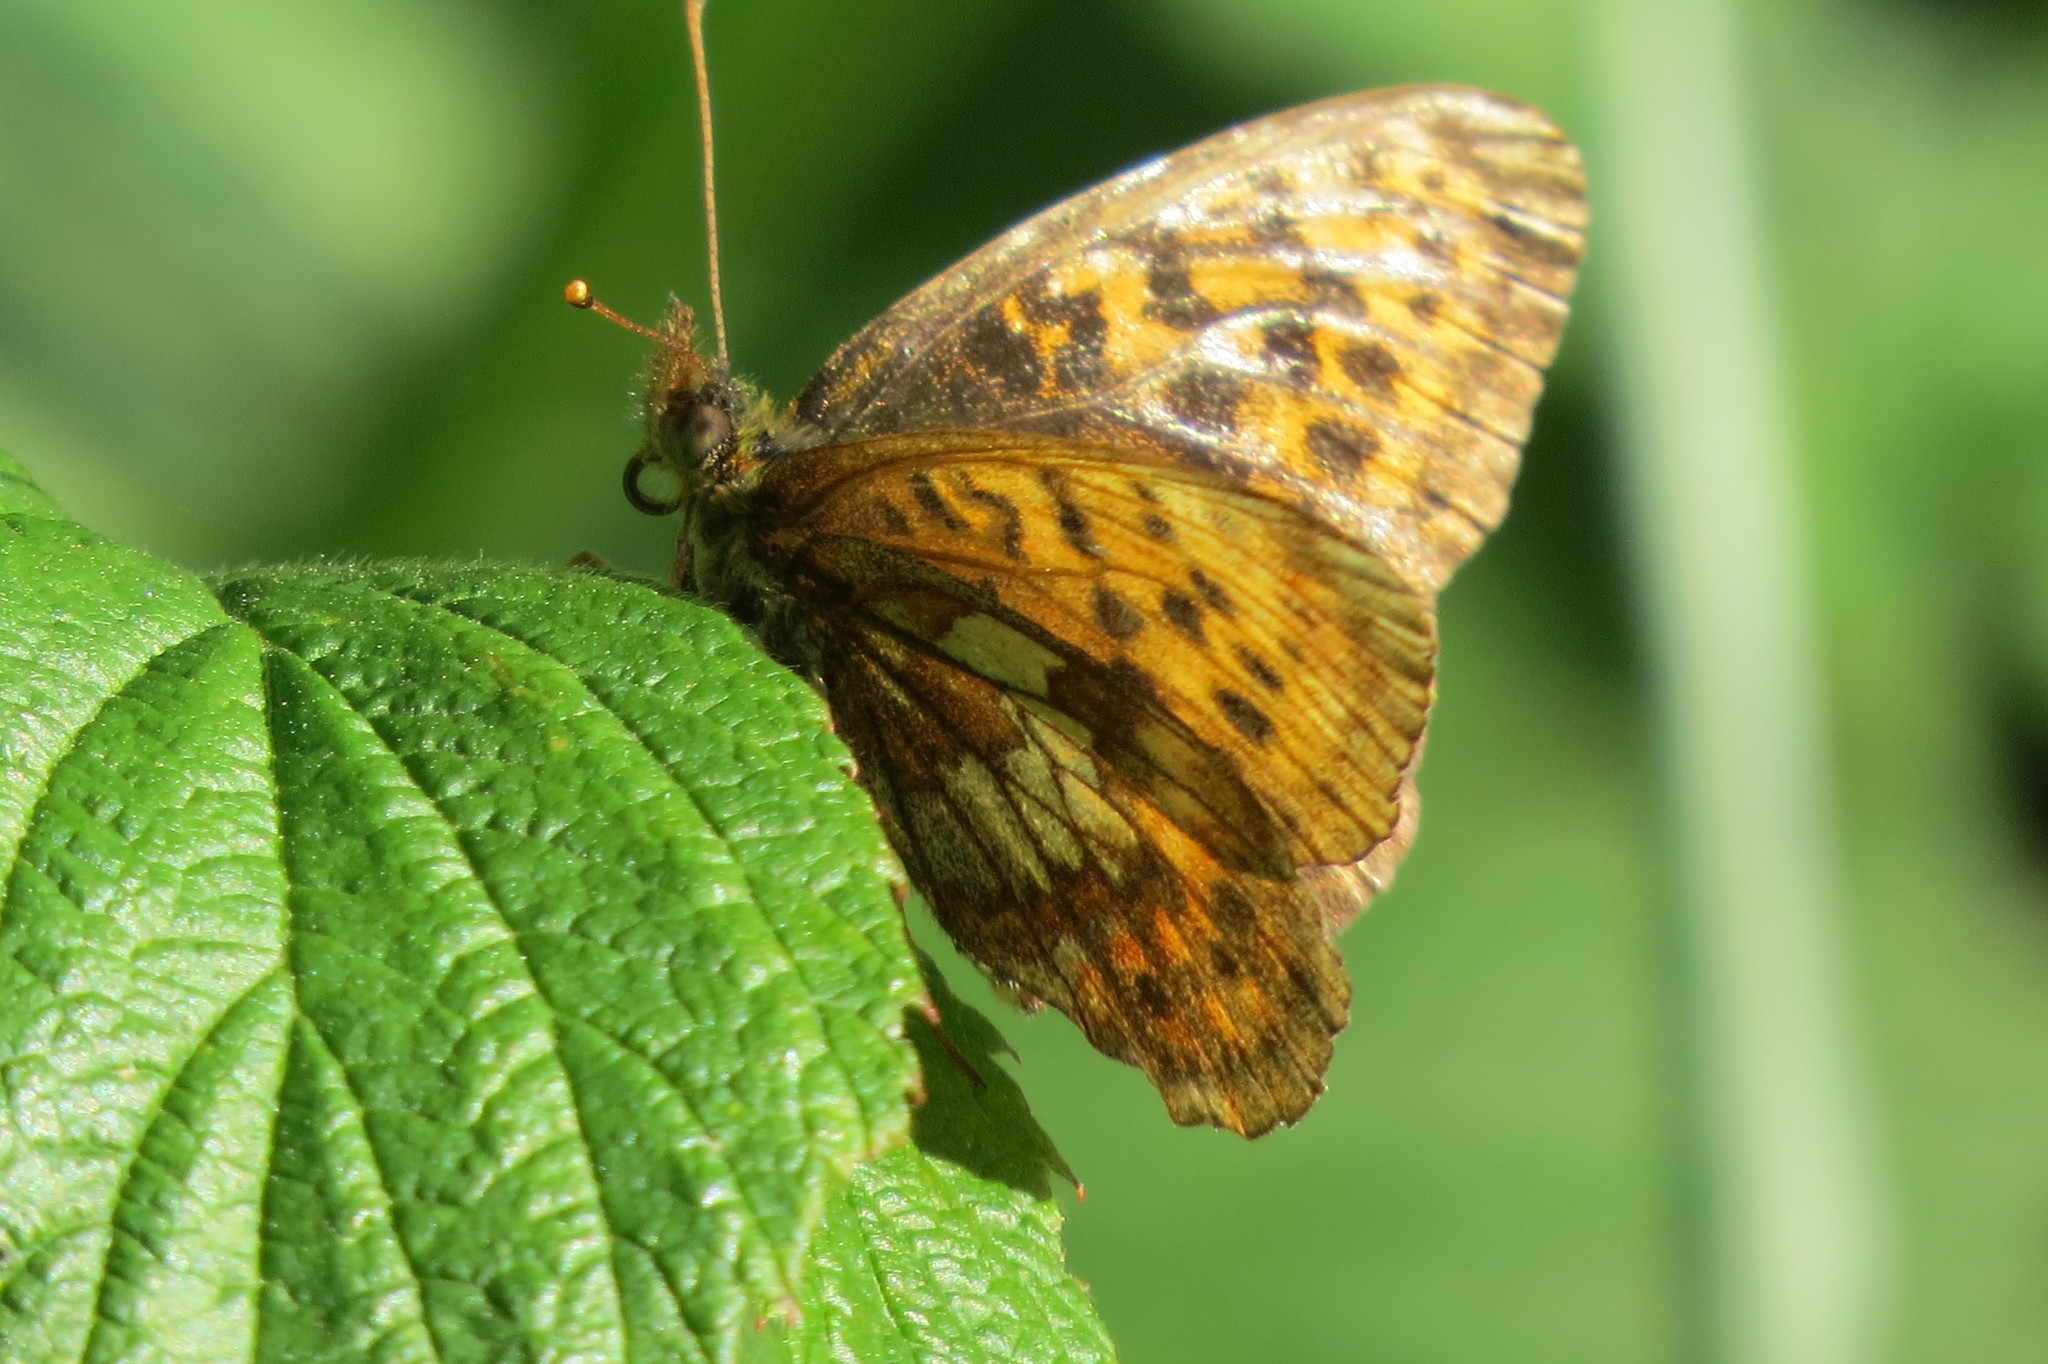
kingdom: Animalia
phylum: Arthropoda
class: Insecta
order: Lepidoptera
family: Nymphalidae
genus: Boloria
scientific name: Boloria thore
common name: Thor's fritillary
